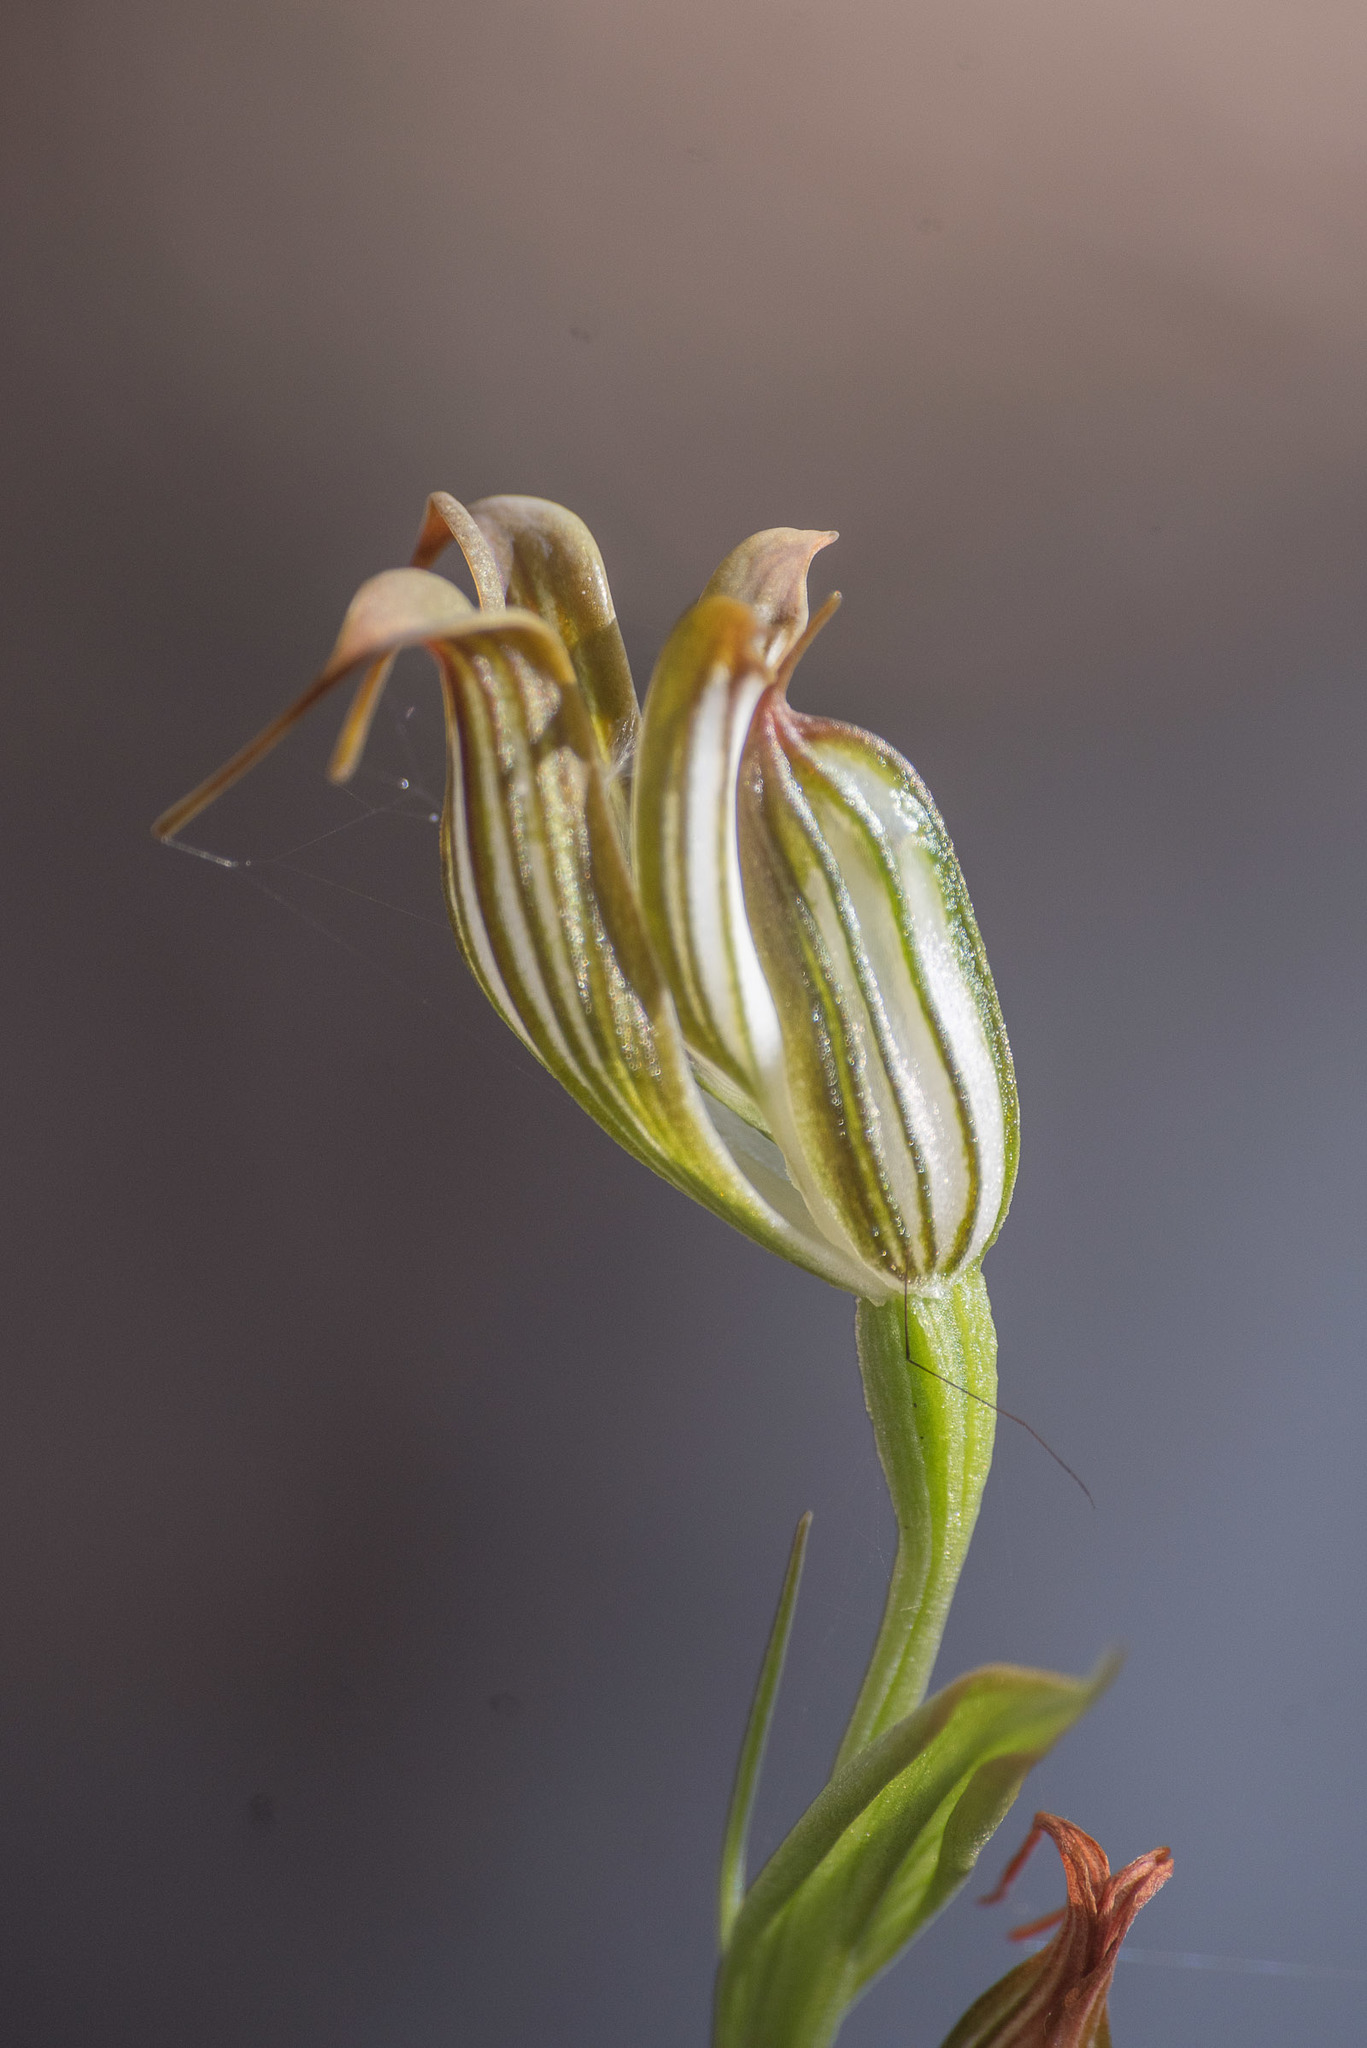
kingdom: Plantae
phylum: Tracheophyta
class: Liliopsida
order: Asparagales
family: Orchidaceae
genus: Pterostylis
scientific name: Pterostylis recurva
